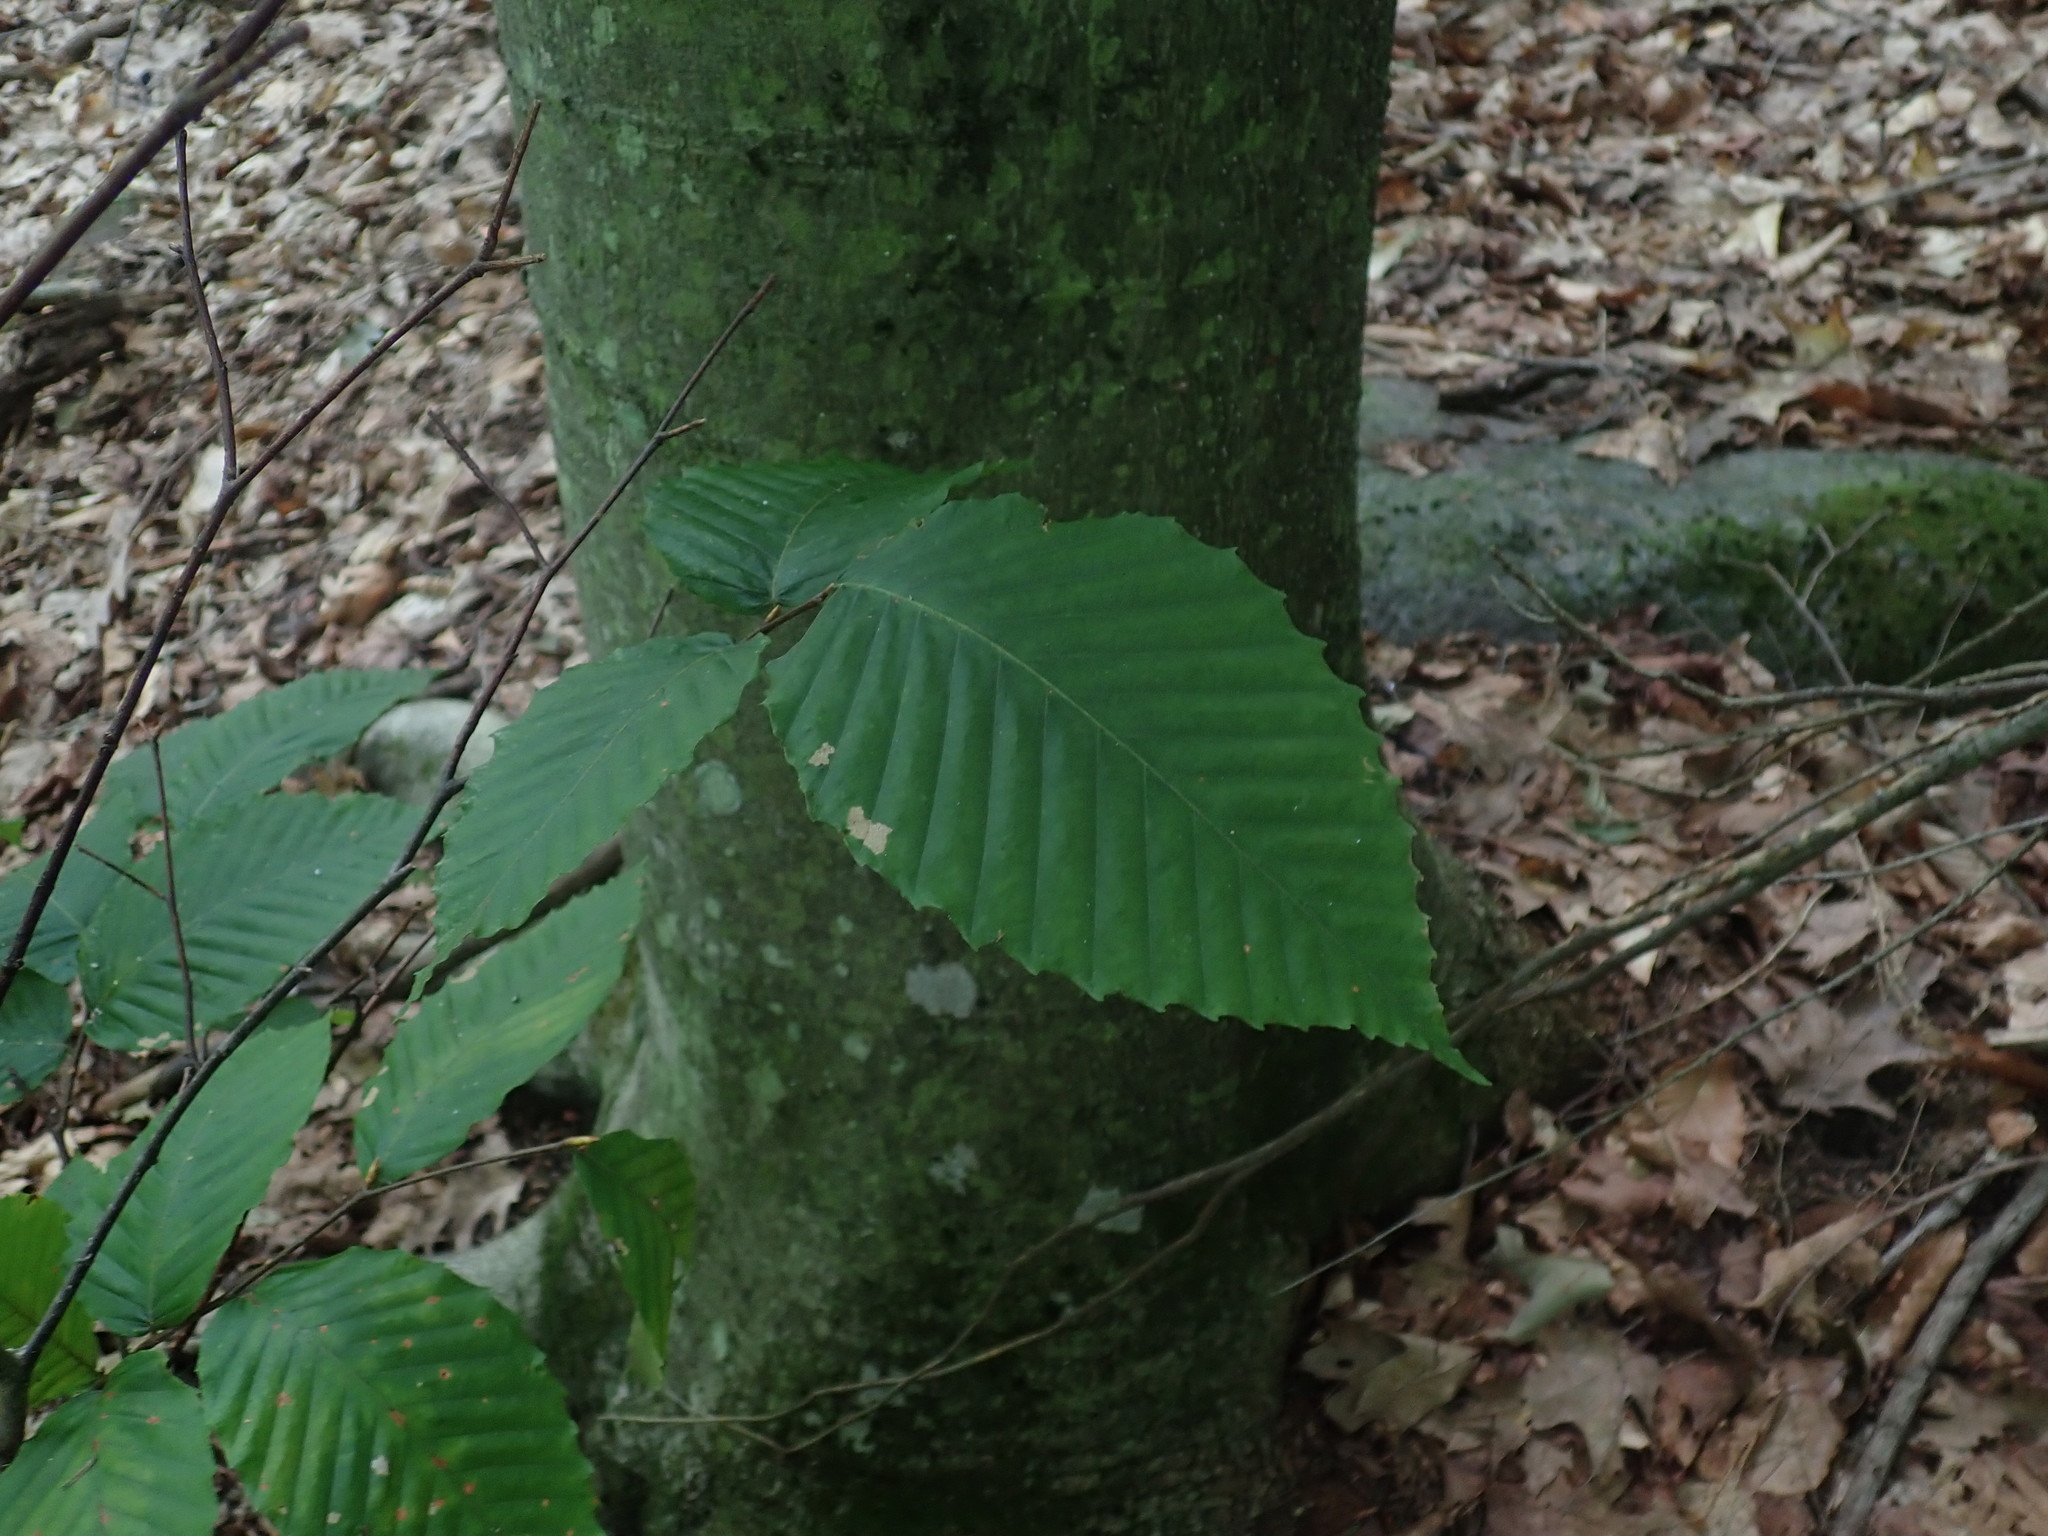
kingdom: Plantae
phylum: Tracheophyta
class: Magnoliopsida
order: Fagales
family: Fagaceae
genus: Fagus
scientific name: Fagus grandifolia
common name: American beech
